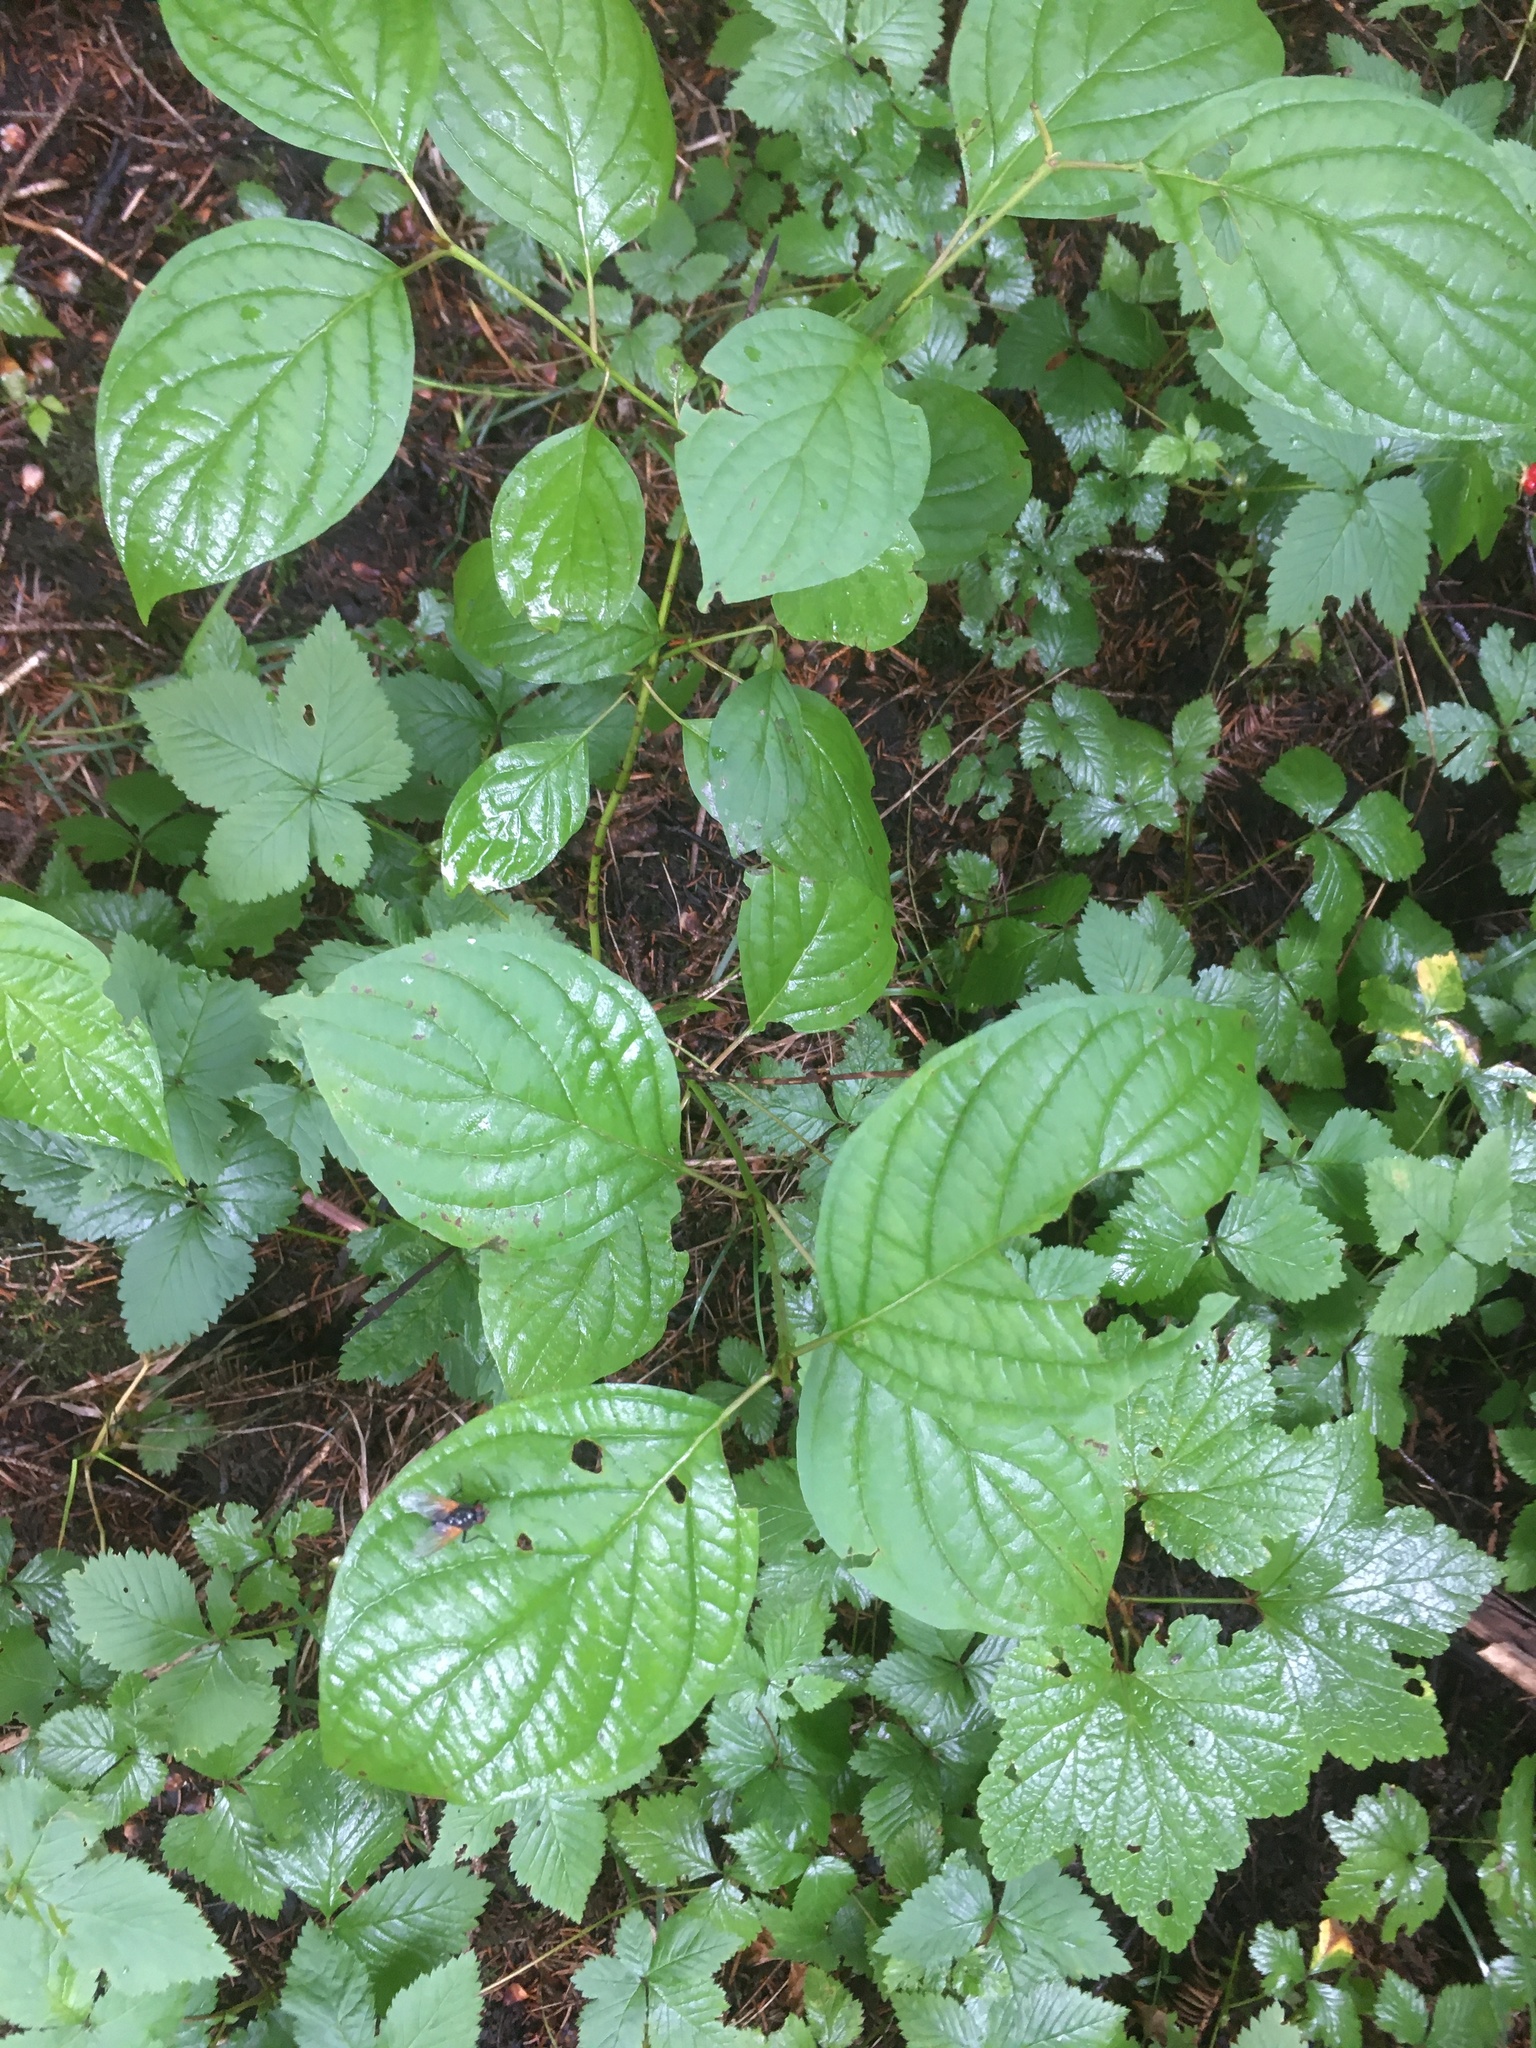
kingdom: Plantae
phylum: Tracheophyta
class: Magnoliopsida
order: Cornales
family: Cornaceae
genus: Cornus
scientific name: Cornus rugosa
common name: Round-leaf dogwood
